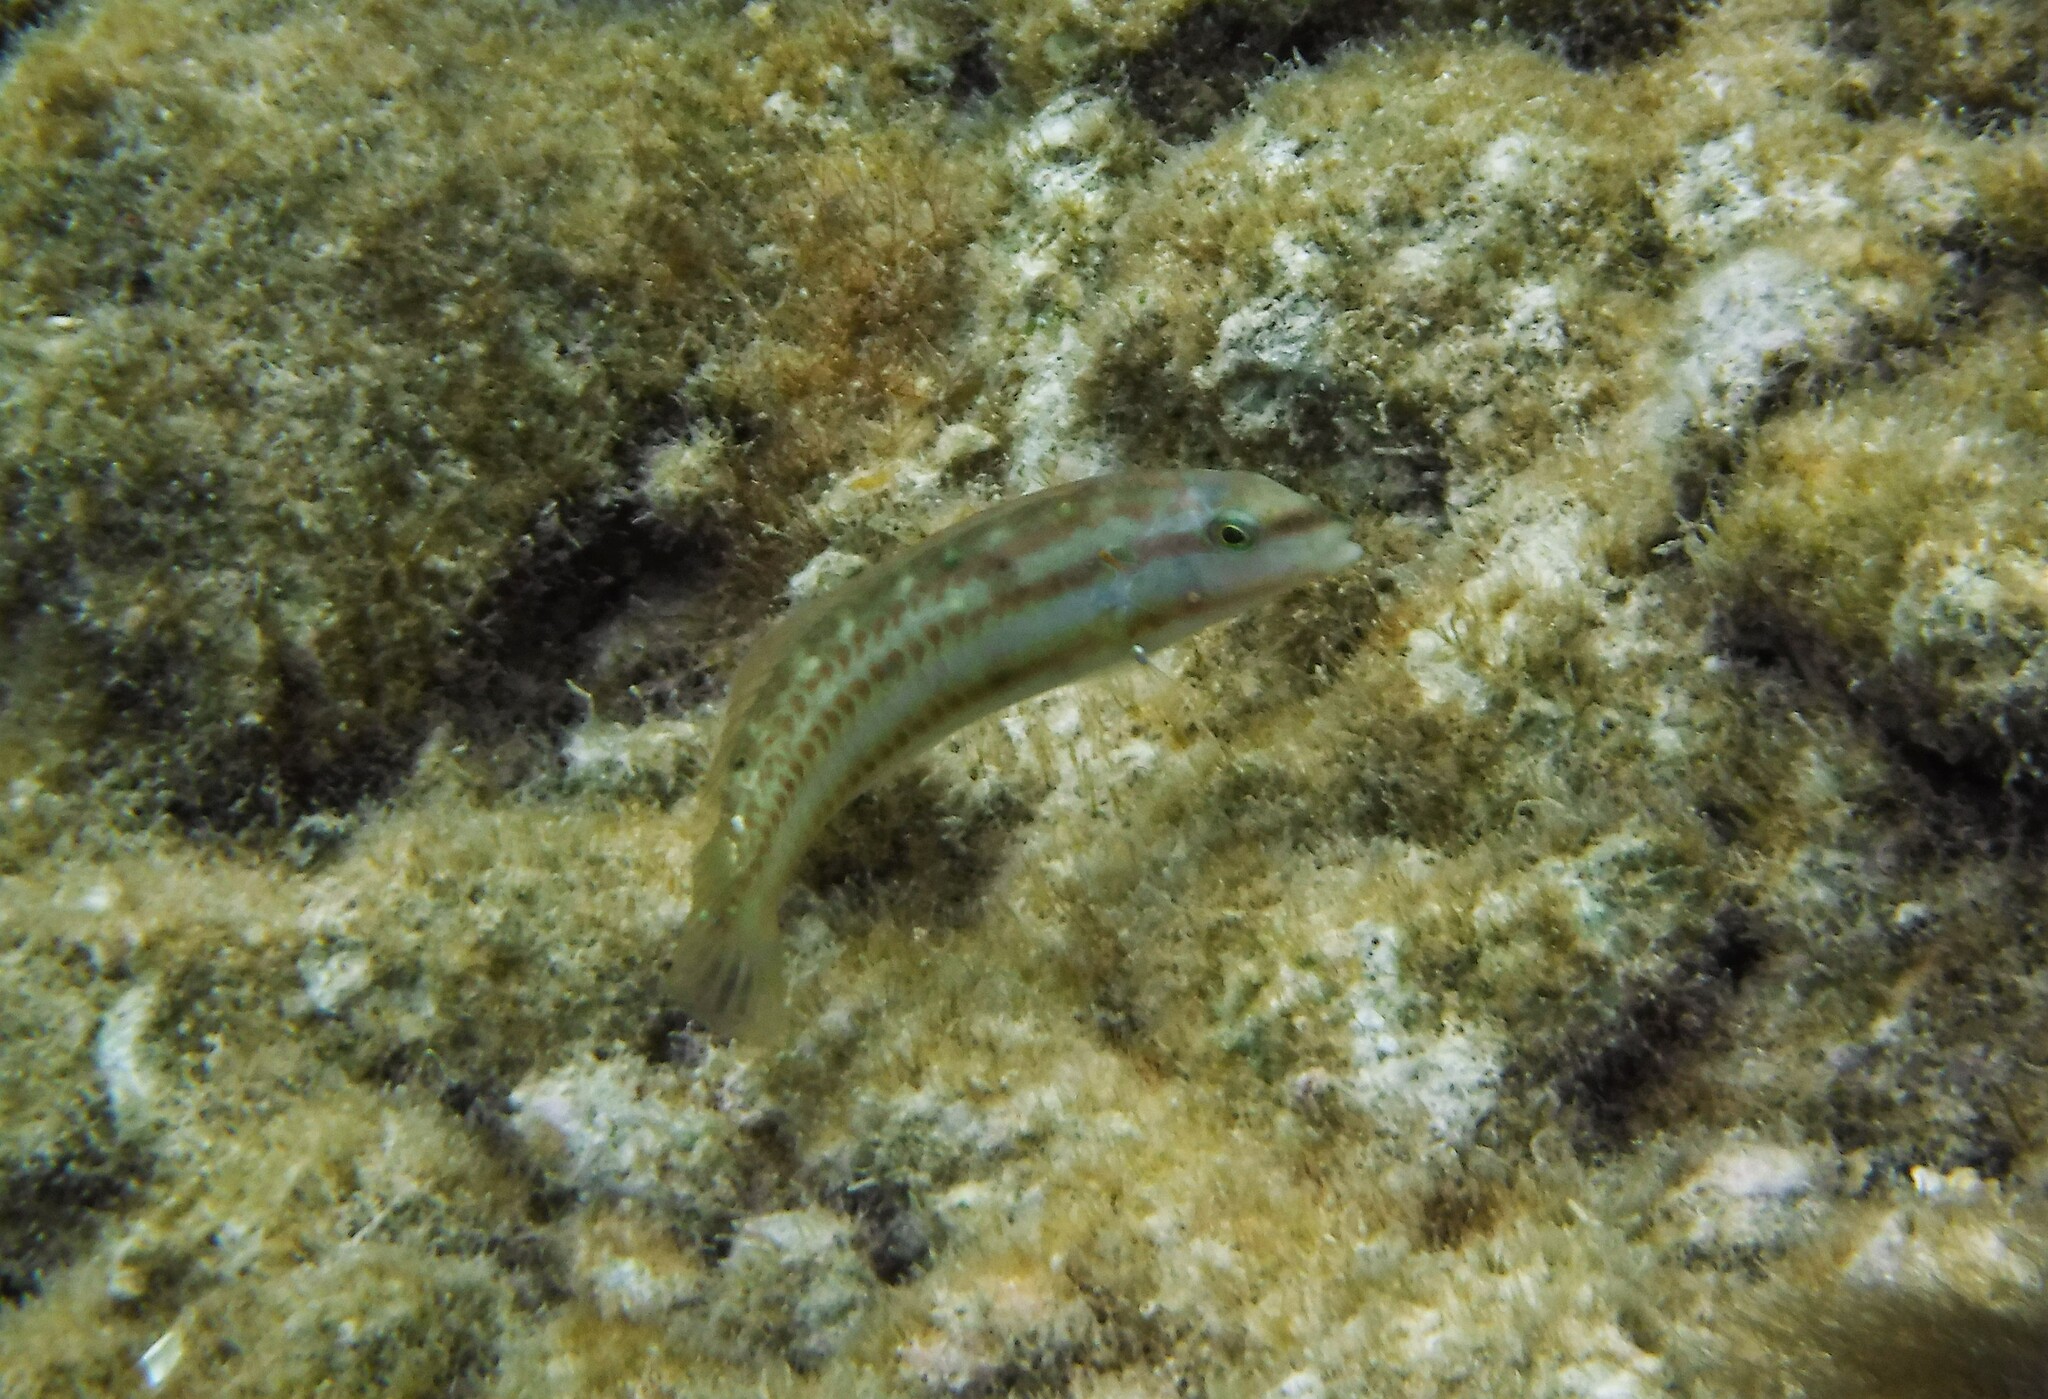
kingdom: Animalia
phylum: Chordata
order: Perciformes
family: Labridae
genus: Halichoeres
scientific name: Halichoeres bivittatus
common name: Slippery dick
